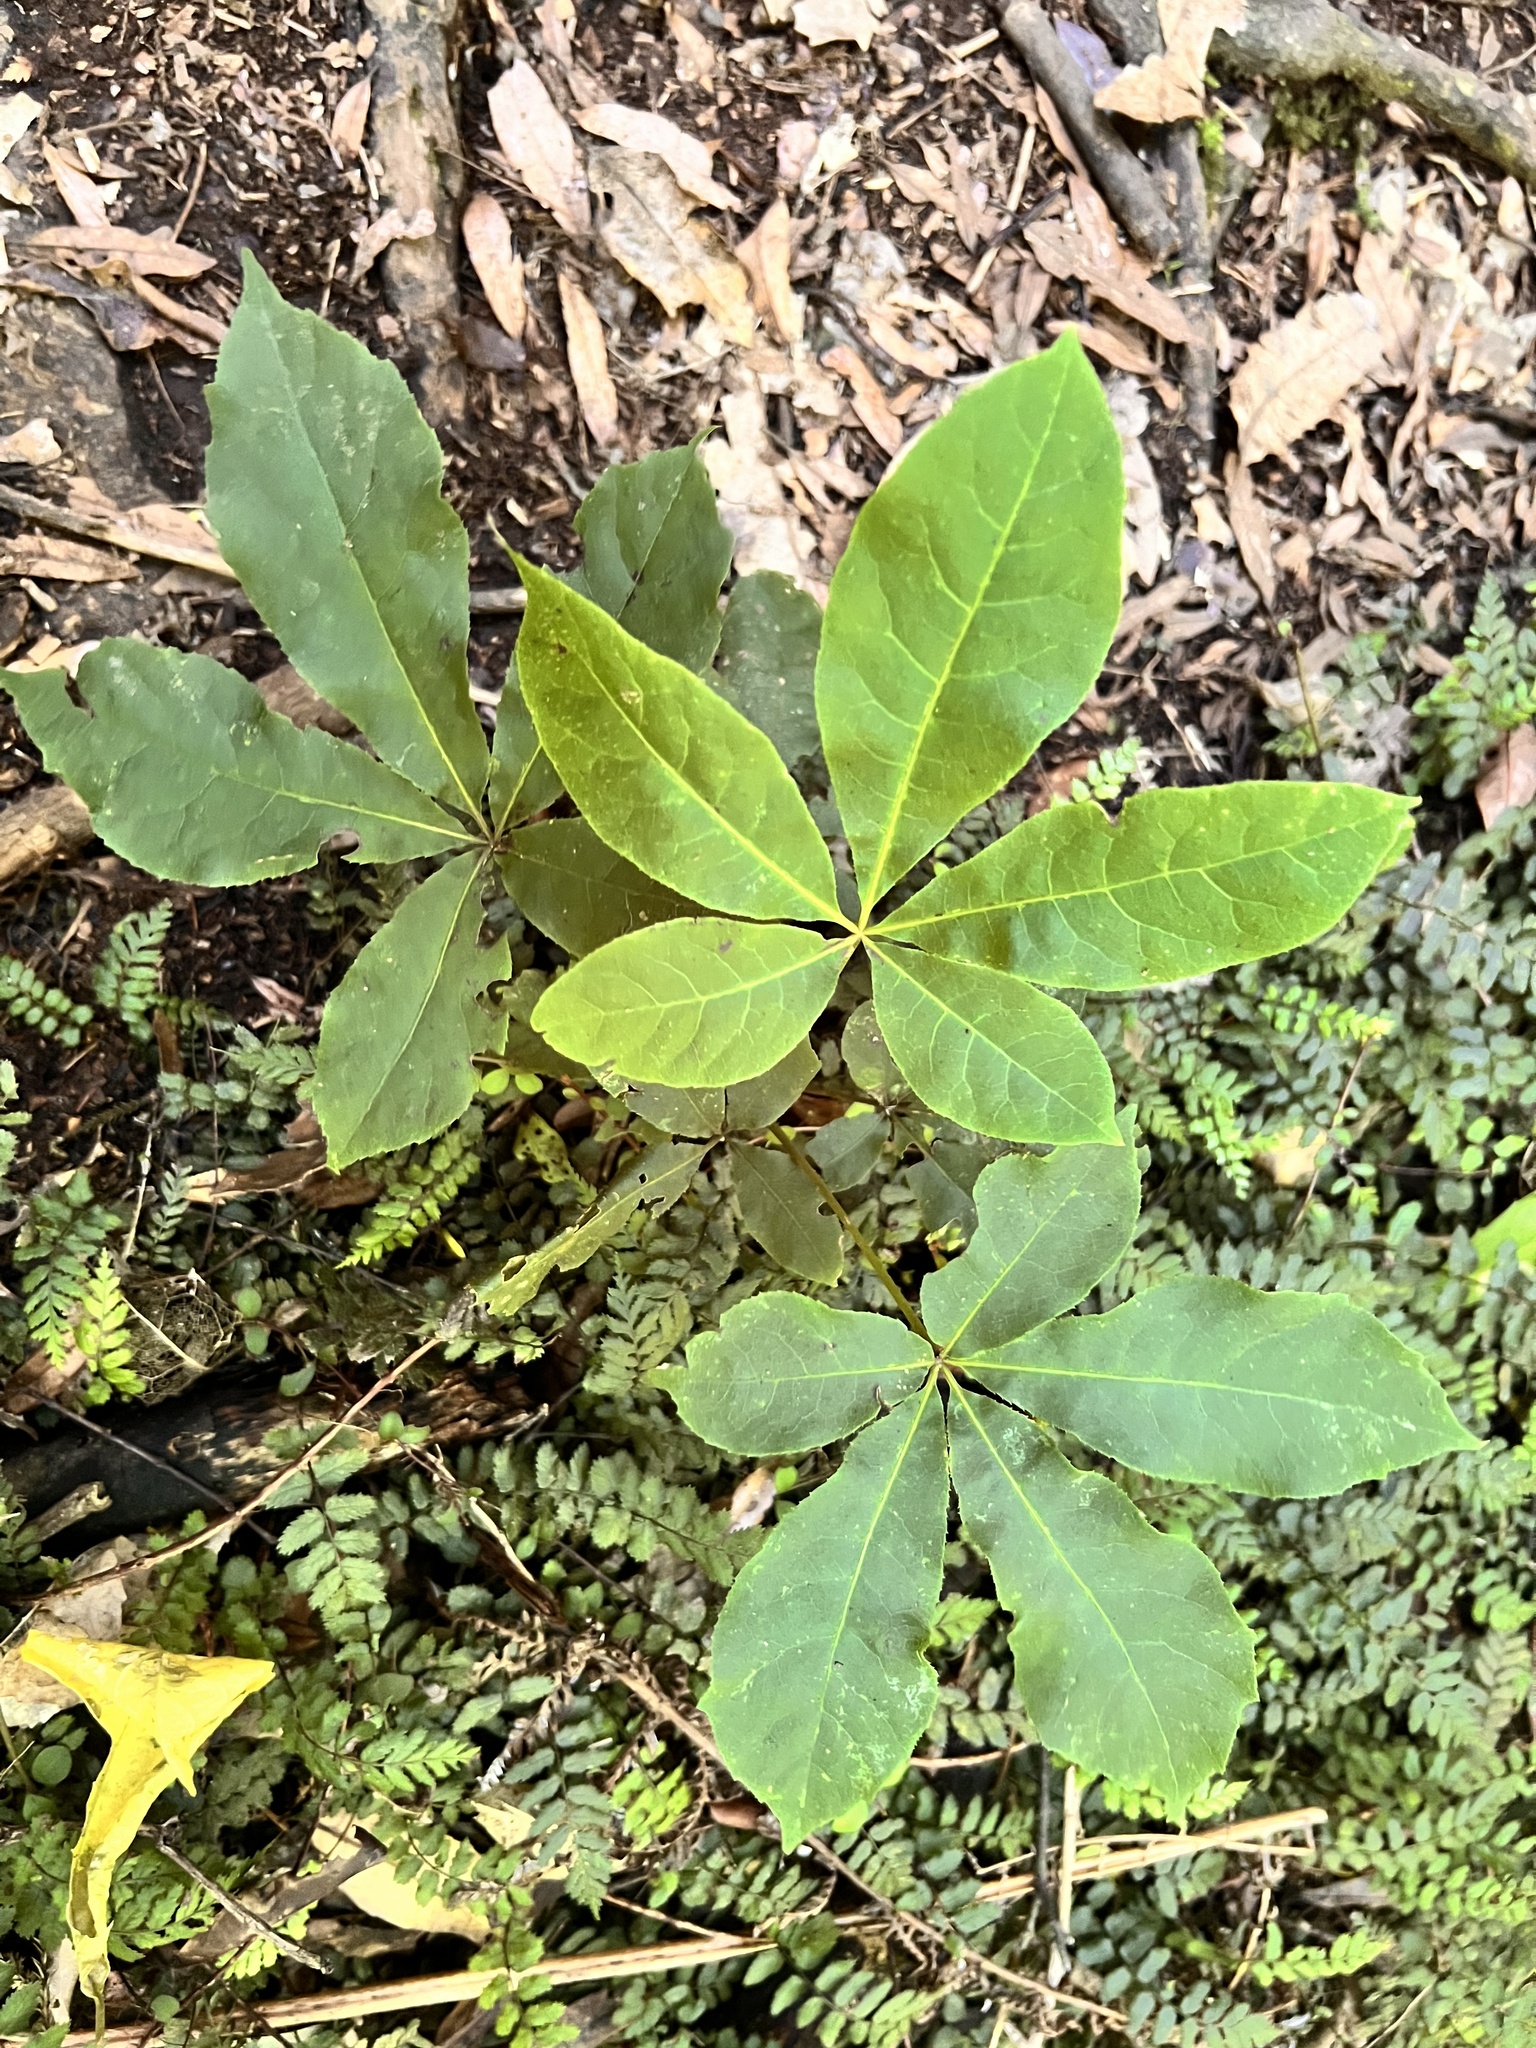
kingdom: Plantae
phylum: Tracheophyta
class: Magnoliopsida
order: Apiales
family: Araliaceae
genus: Schefflera
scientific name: Schefflera digitata
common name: Pate
